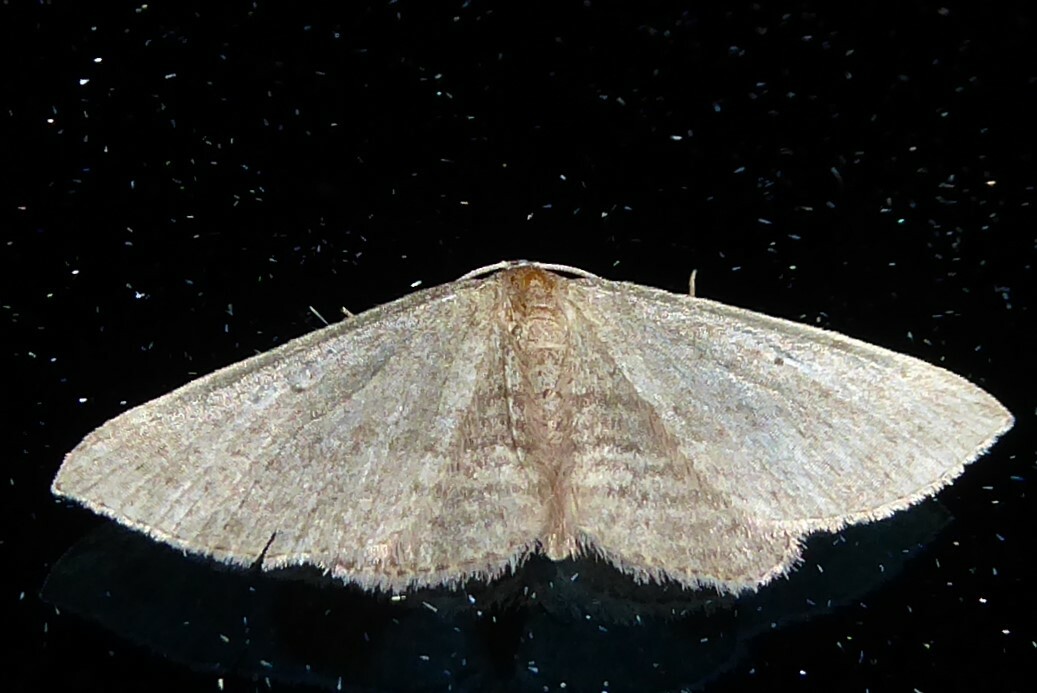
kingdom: Animalia
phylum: Arthropoda
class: Insecta
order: Lepidoptera
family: Geometridae
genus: Poecilasthena
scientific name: Poecilasthena schistaria
